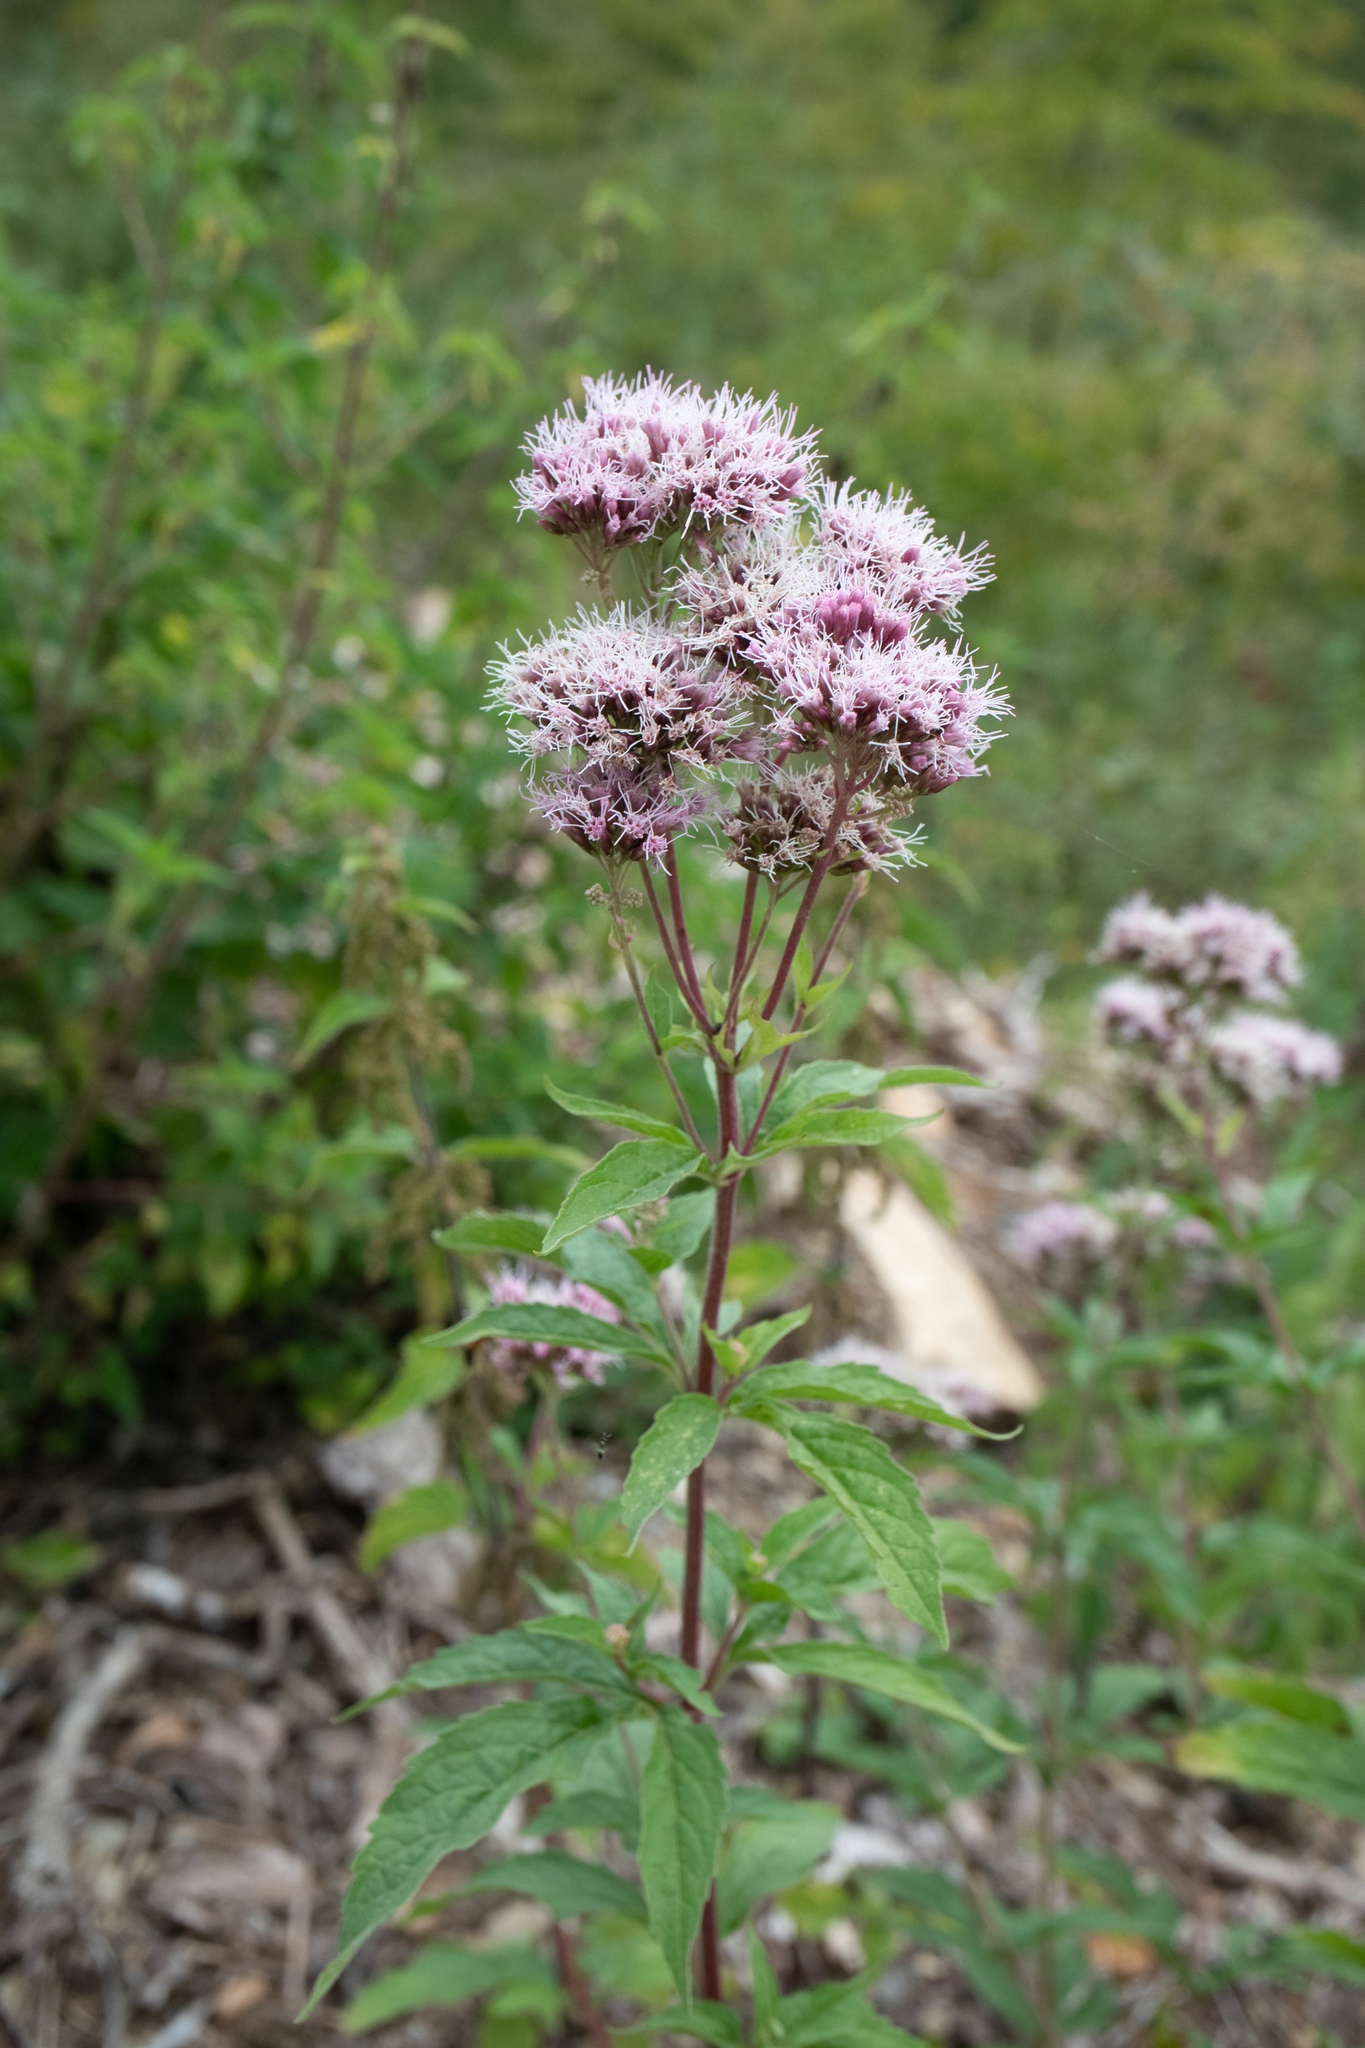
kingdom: Plantae
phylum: Tracheophyta
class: Magnoliopsida
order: Asterales
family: Asteraceae
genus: Eupatorium
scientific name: Eupatorium cannabinum
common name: Hemp-agrimony
